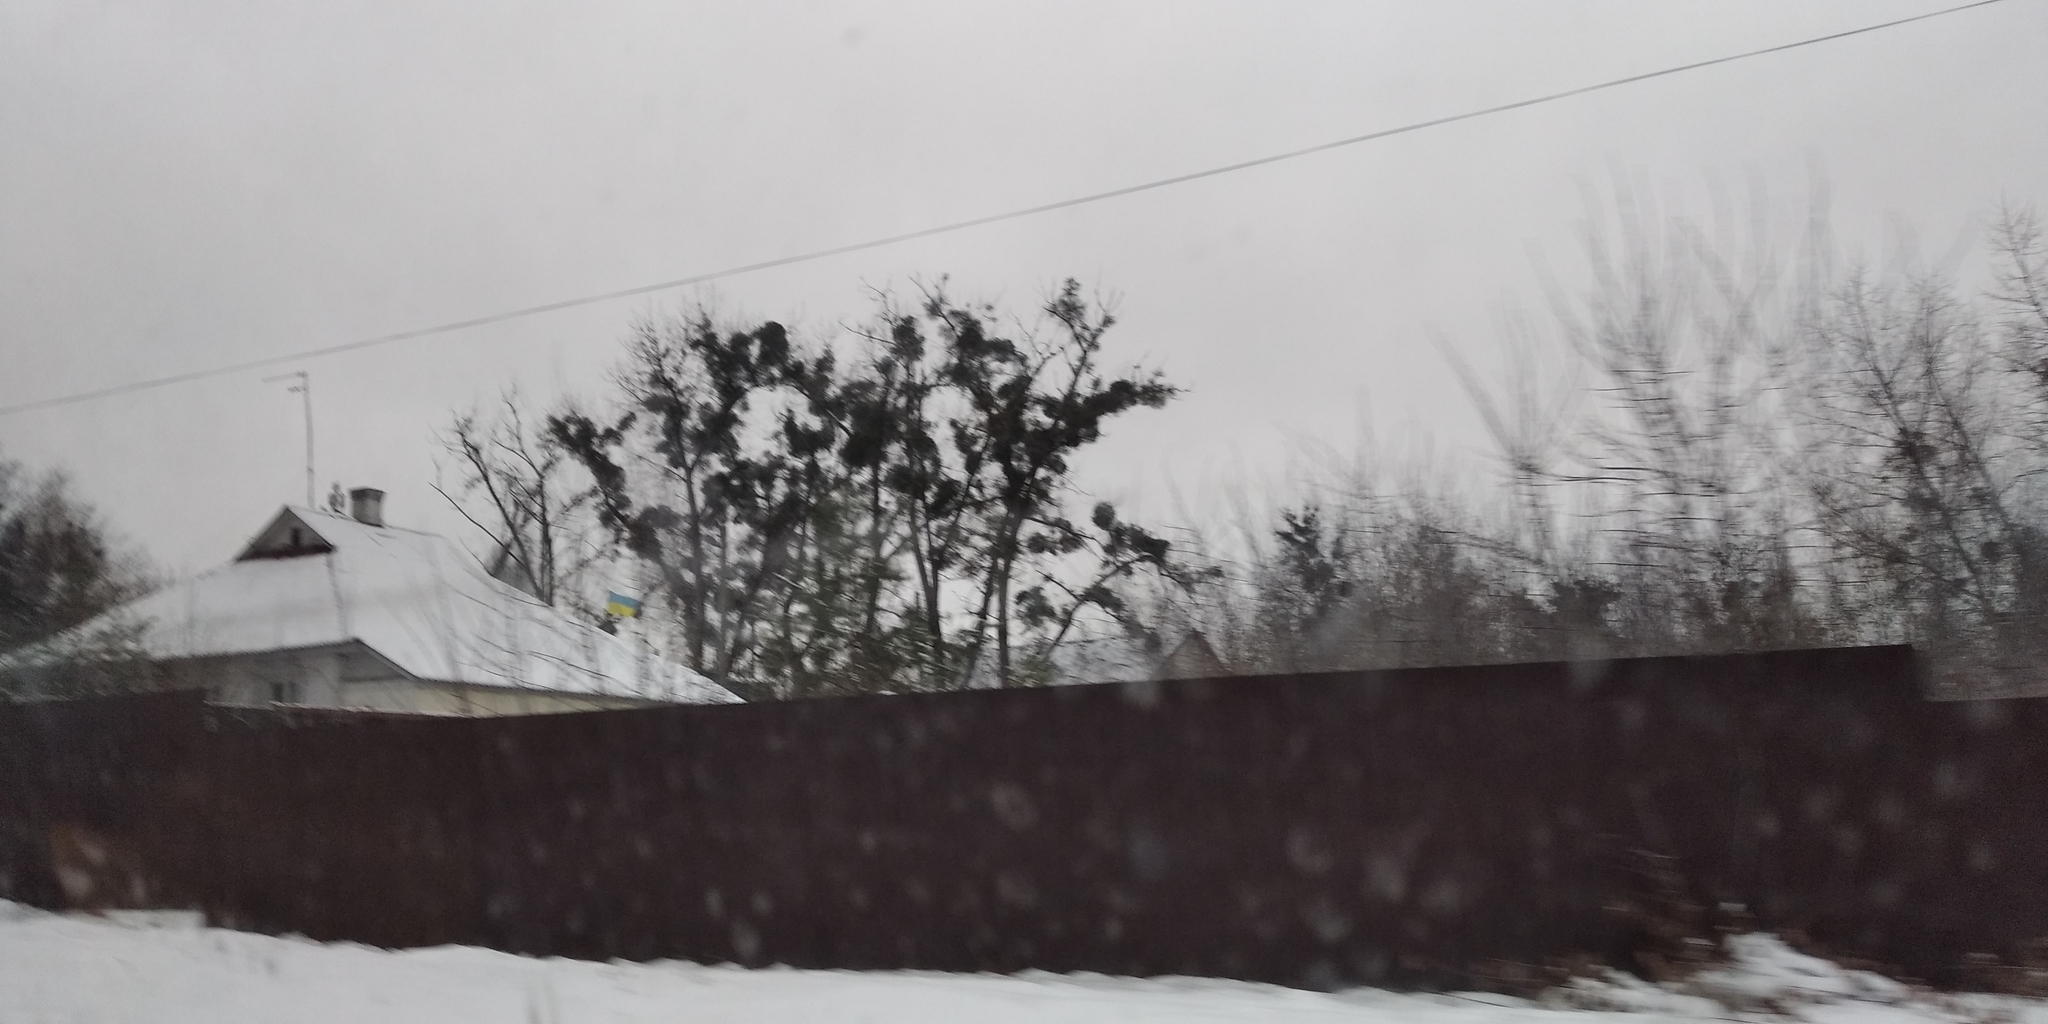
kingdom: Plantae
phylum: Tracheophyta
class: Magnoliopsida
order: Santalales
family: Viscaceae
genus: Viscum
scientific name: Viscum album
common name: Mistletoe
